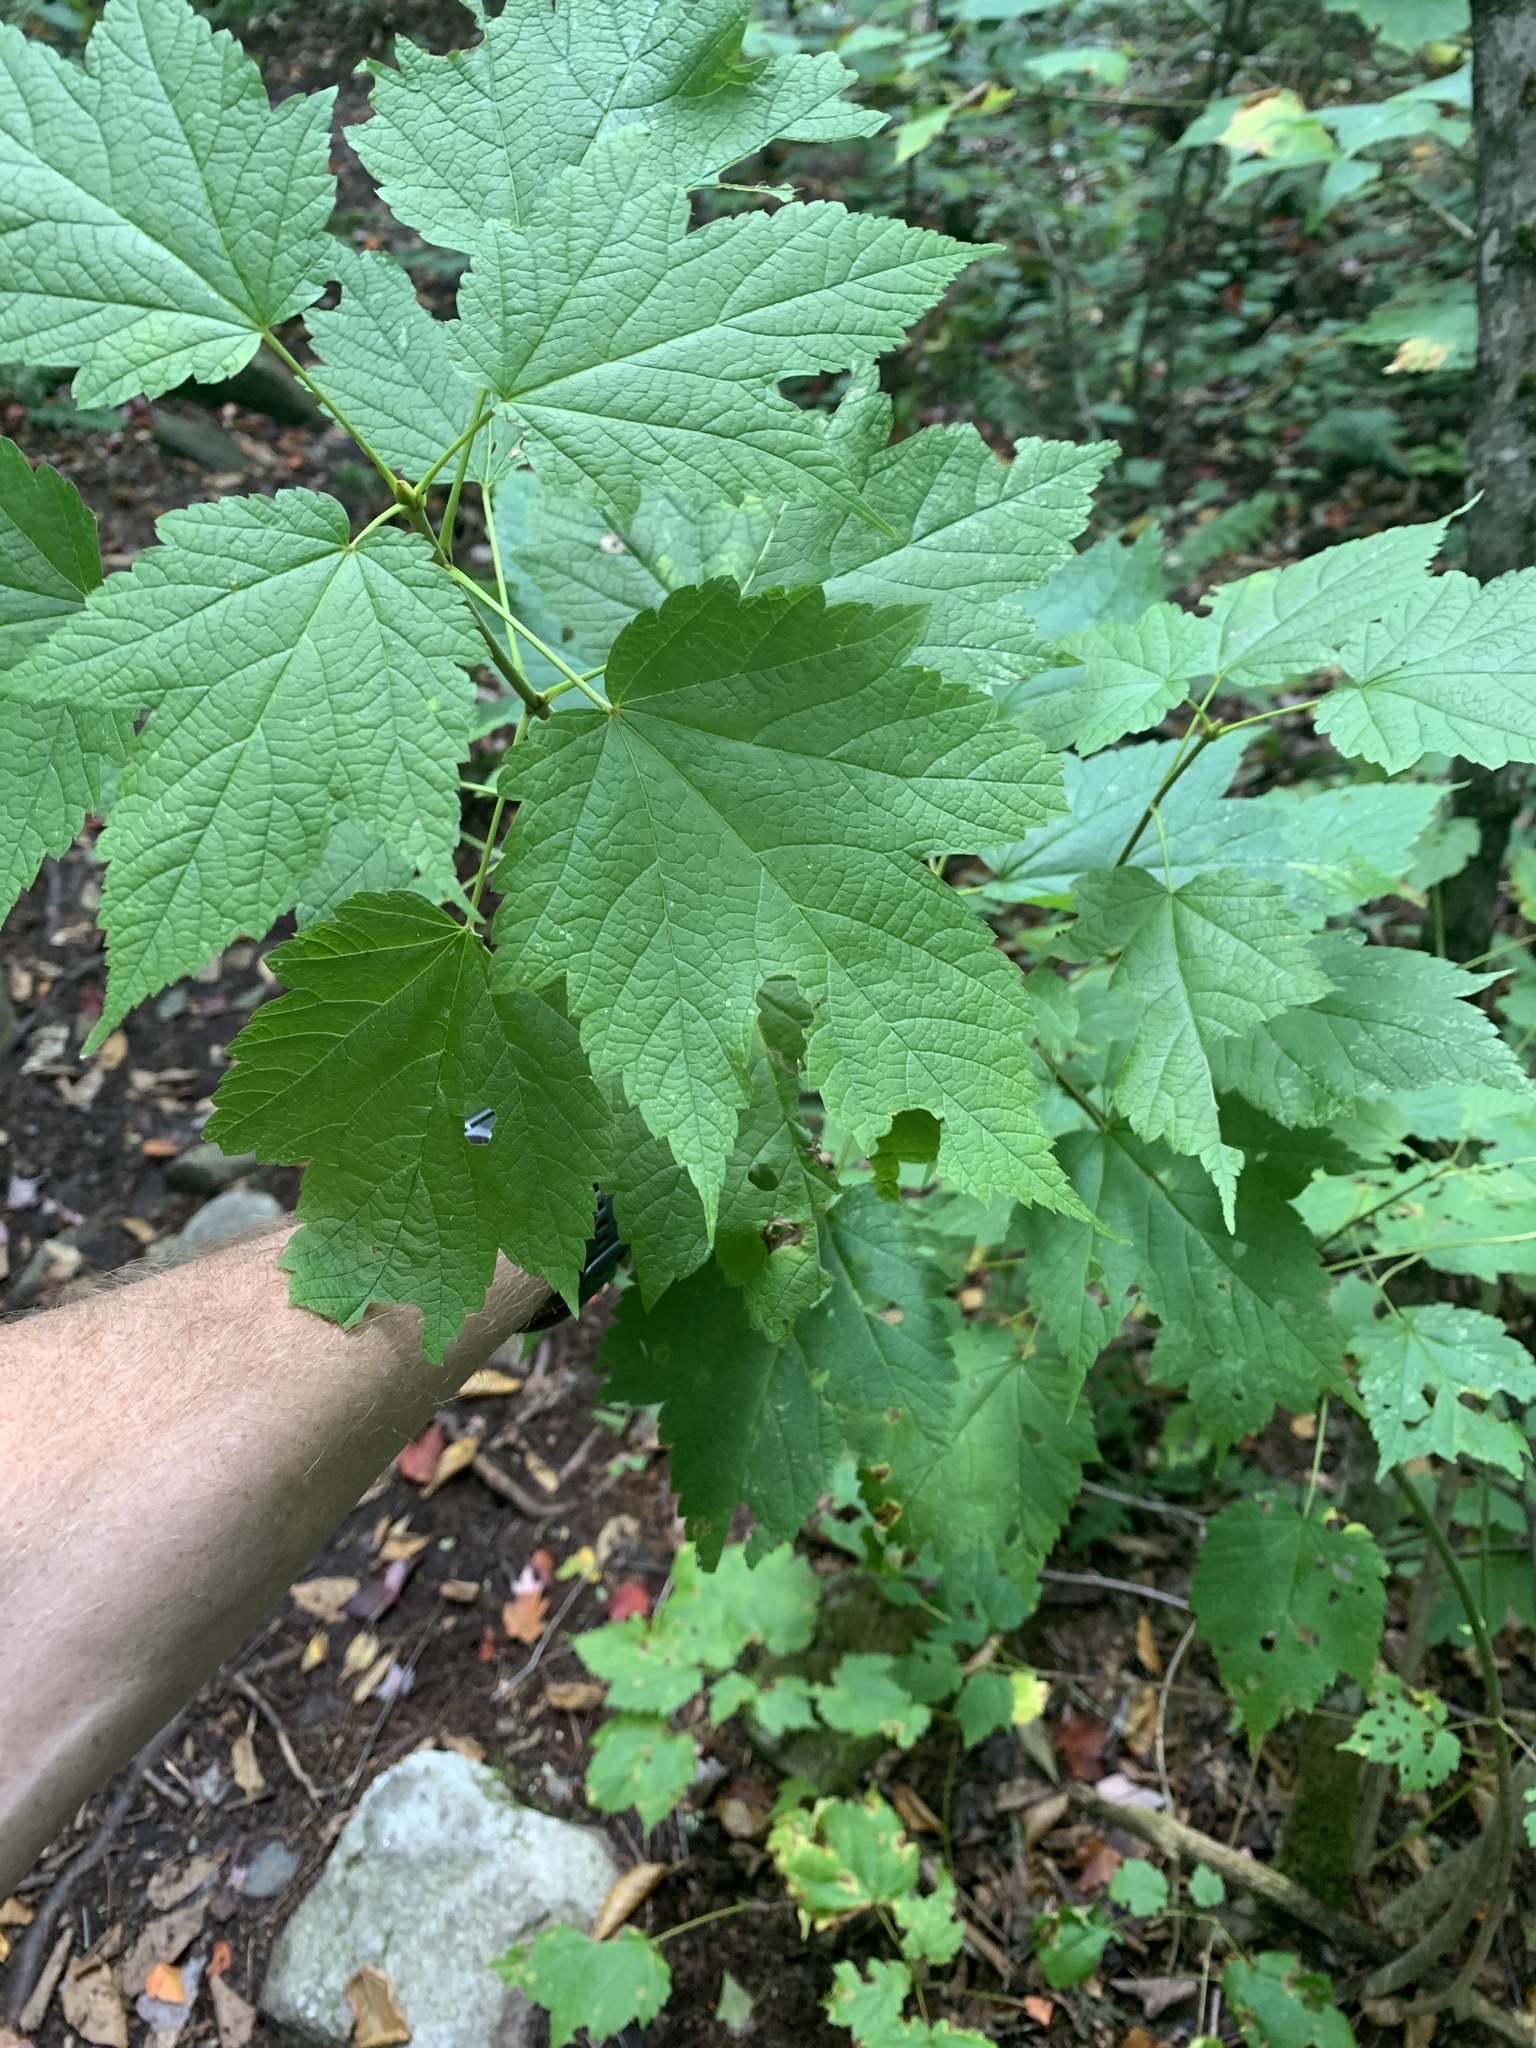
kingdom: Plantae
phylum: Tracheophyta
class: Magnoliopsida
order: Sapindales
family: Sapindaceae
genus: Acer
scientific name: Acer spicatum
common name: Mountain maple
